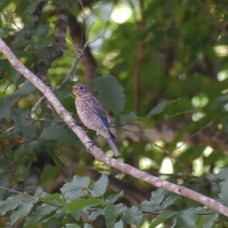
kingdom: Animalia
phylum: Chordata
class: Aves
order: Passeriformes
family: Turdidae
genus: Sialia
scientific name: Sialia sialis
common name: Eastern bluebird
